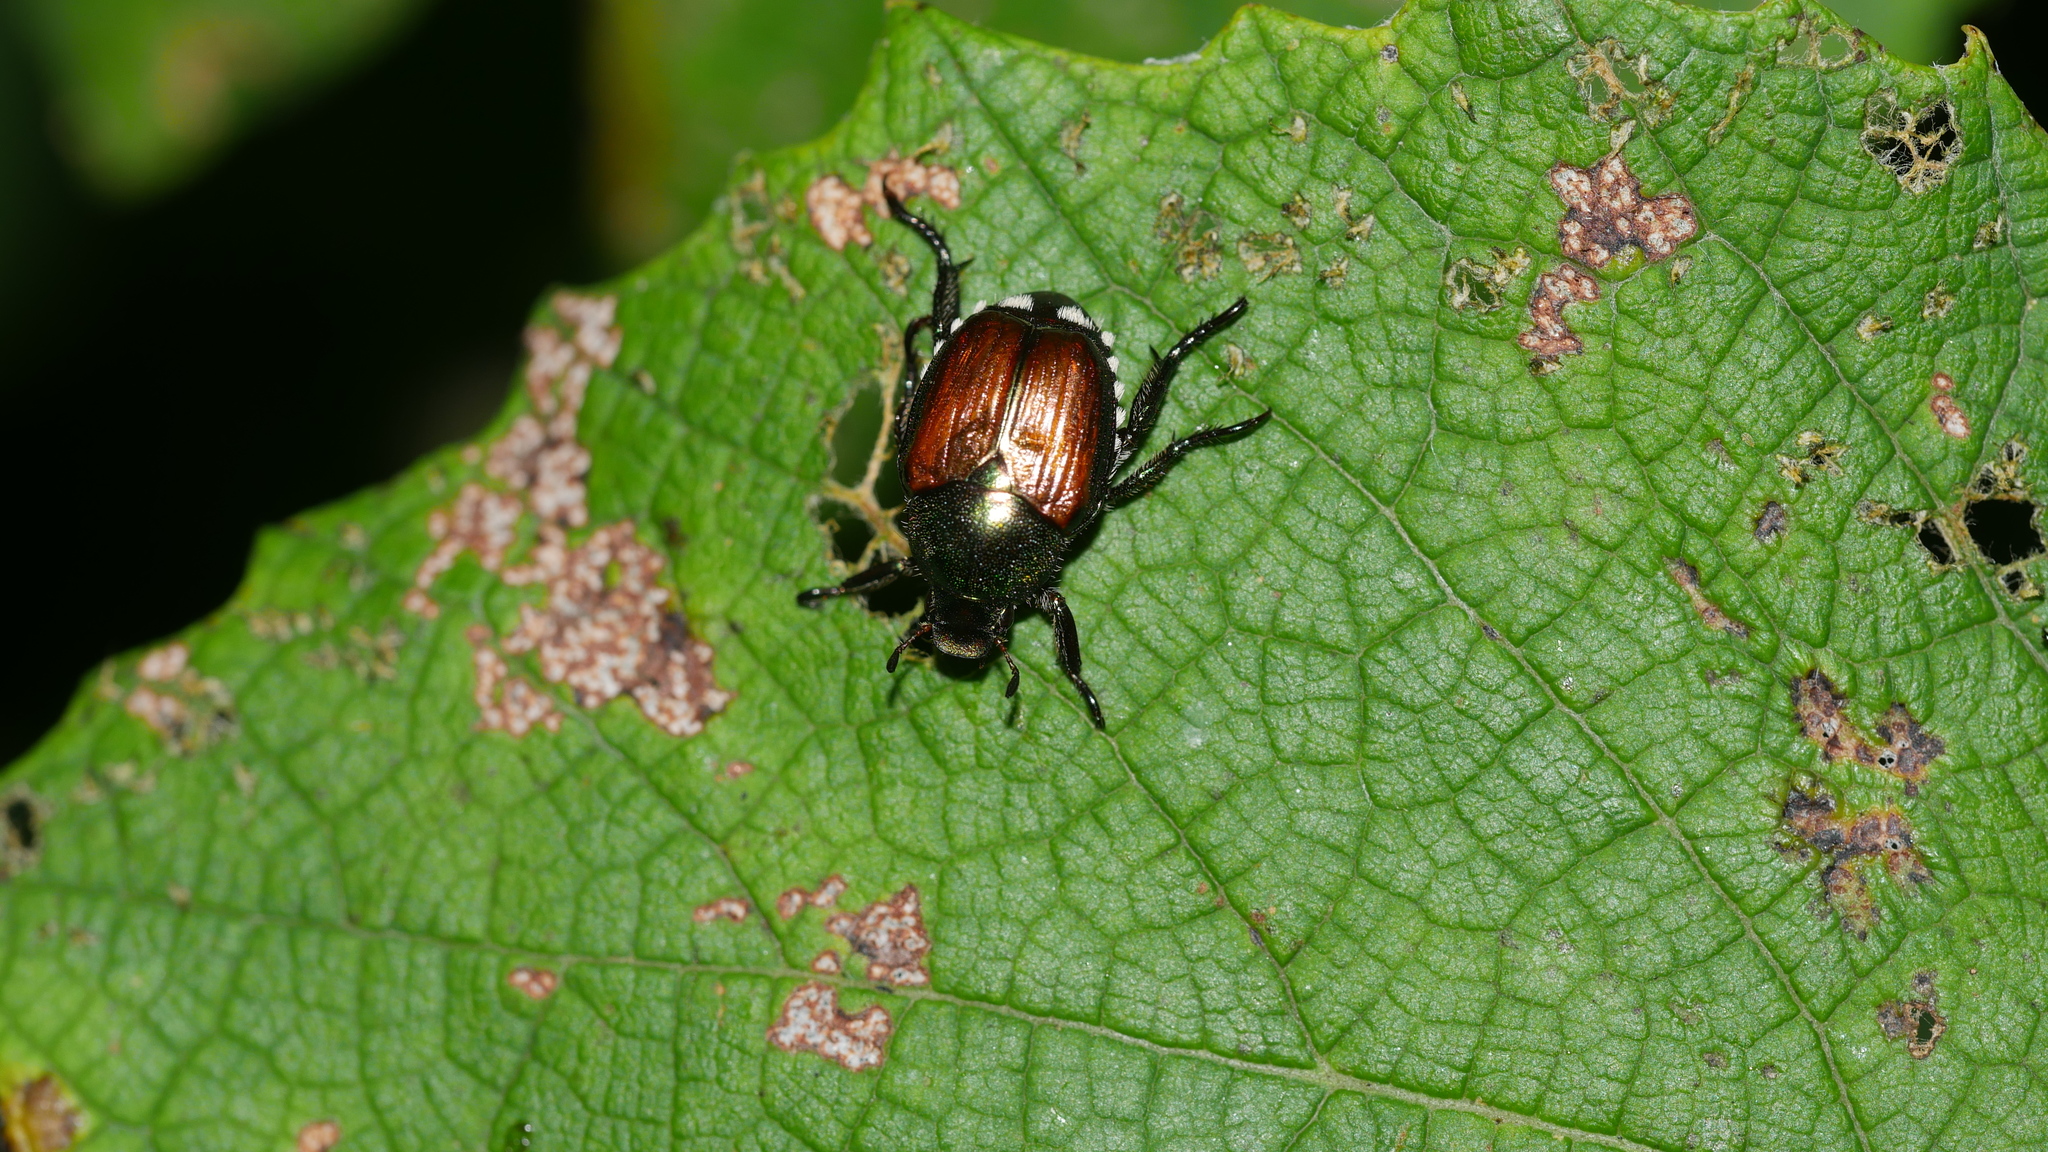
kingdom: Animalia
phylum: Arthropoda
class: Insecta
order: Coleoptera
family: Scarabaeidae
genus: Popillia
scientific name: Popillia japonica
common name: Japanese beetle
